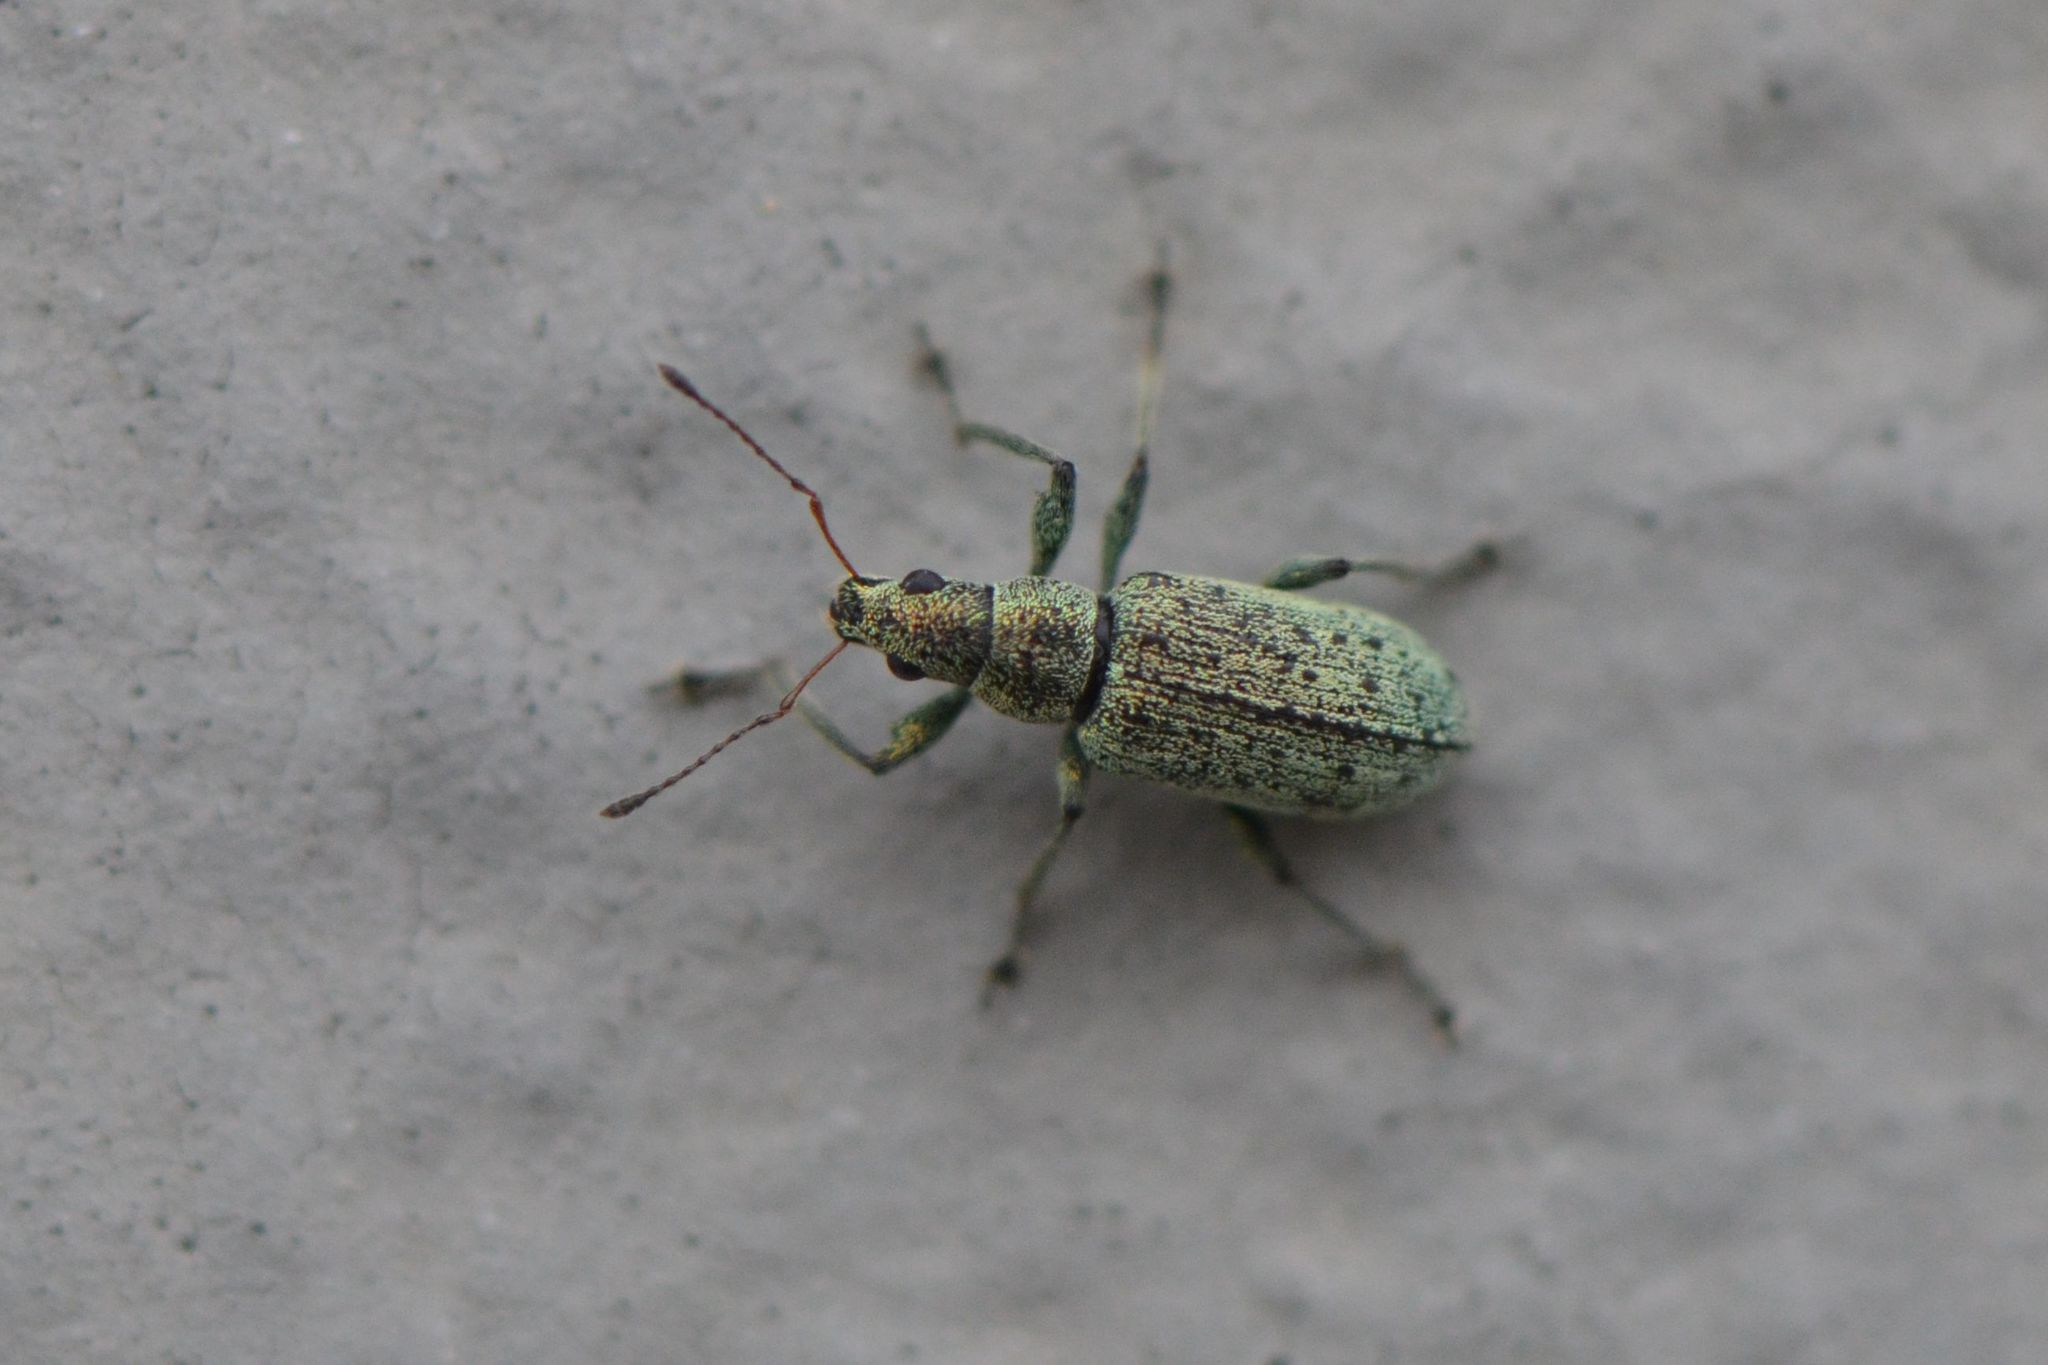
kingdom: Animalia
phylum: Arthropoda
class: Insecta
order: Coleoptera
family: Curculionidae
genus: Polydrusus
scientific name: Polydrusus cervinus
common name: Weevil
